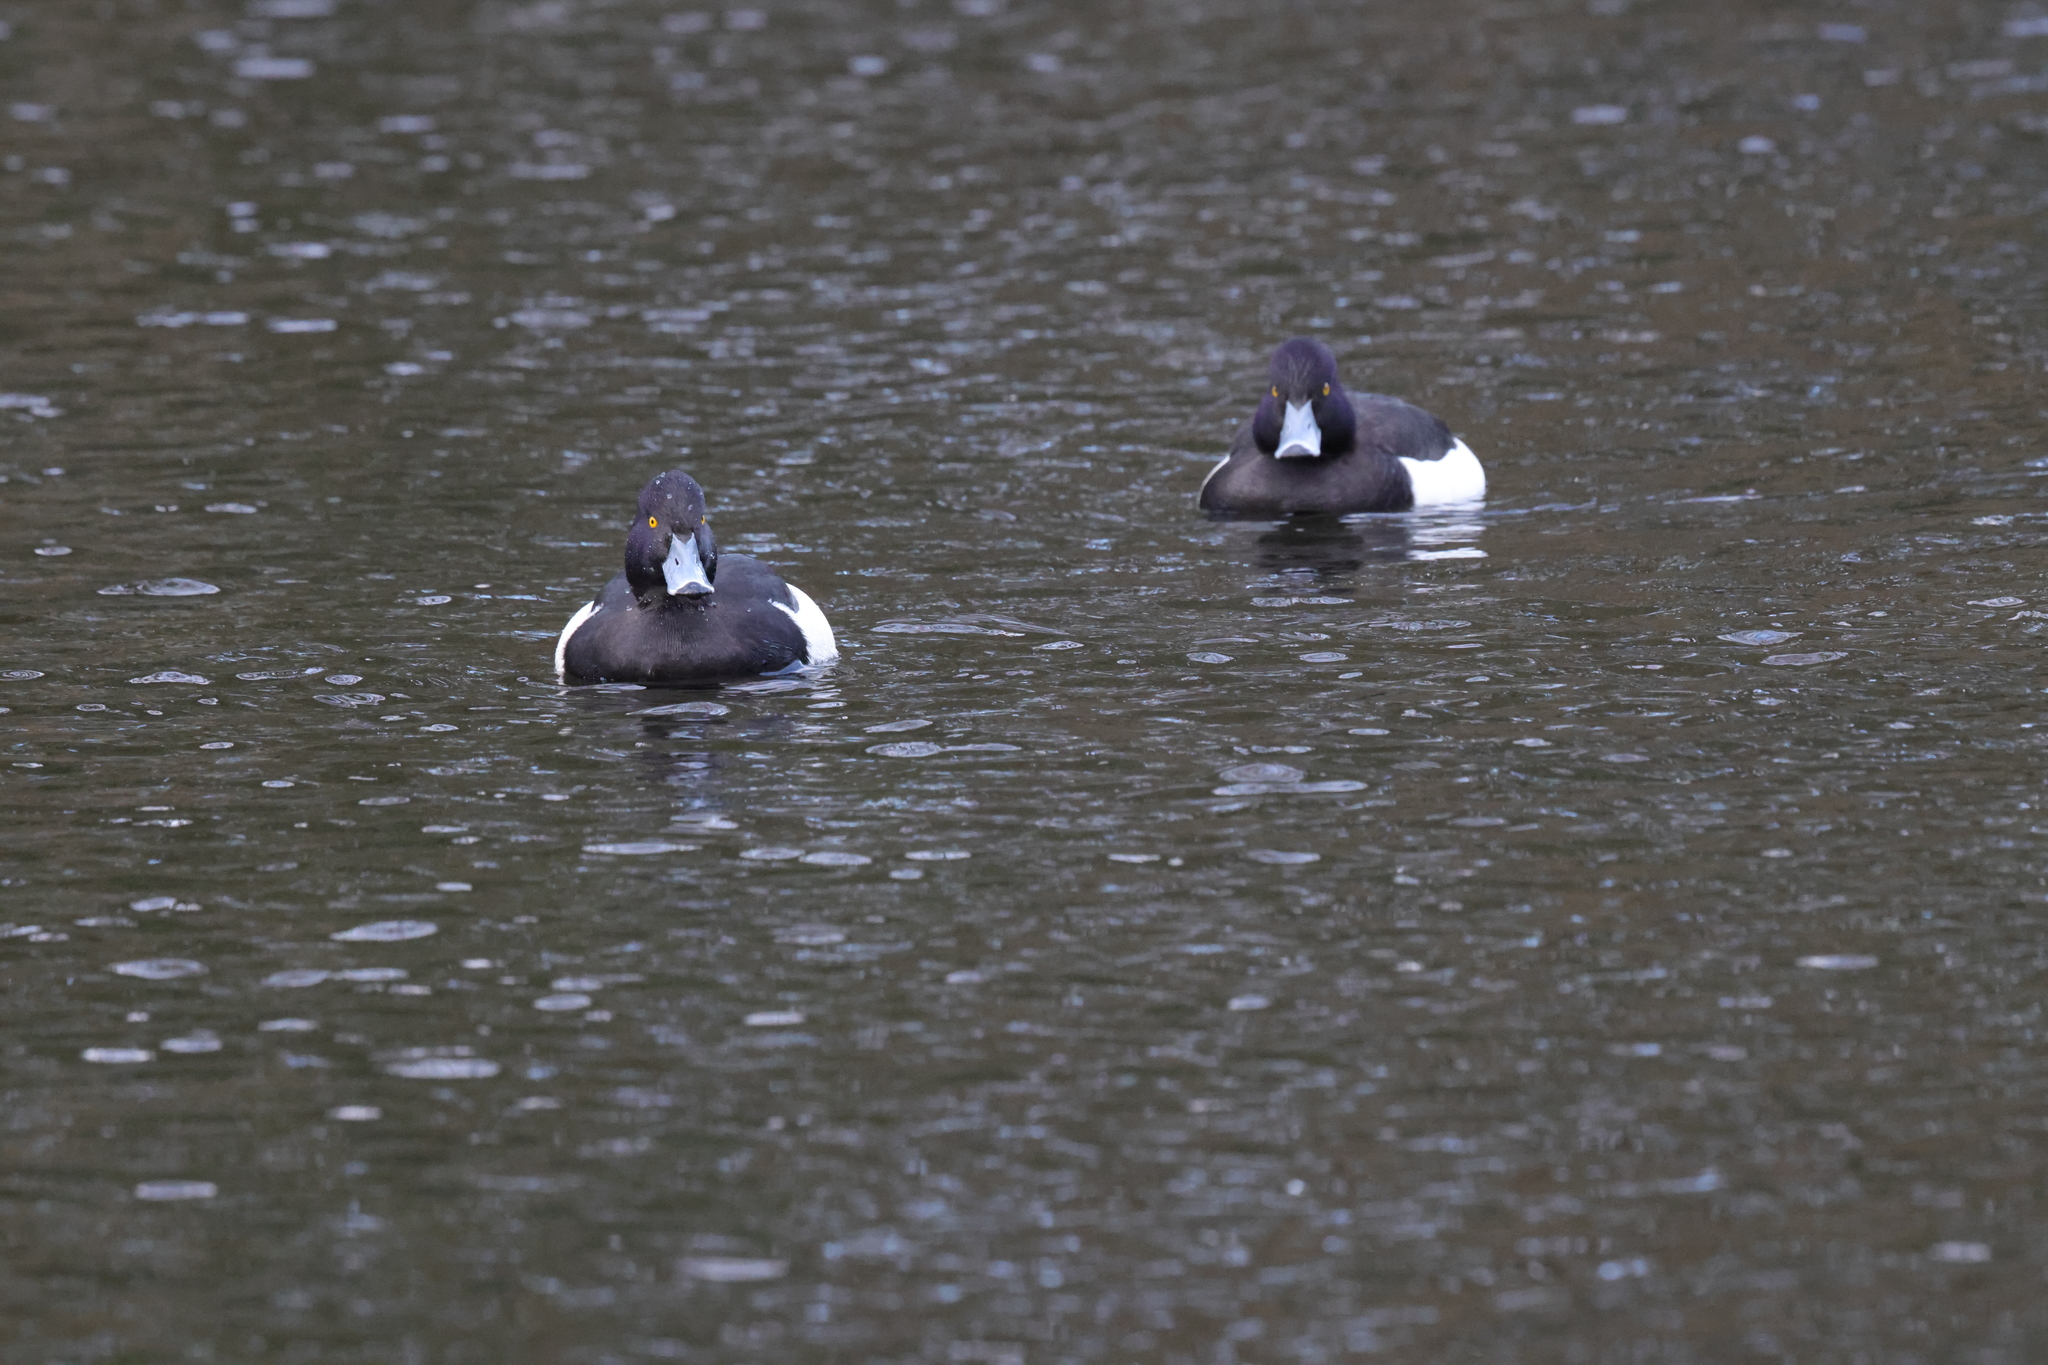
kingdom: Animalia
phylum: Chordata
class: Aves
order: Anseriformes
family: Anatidae
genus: Aythya
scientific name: Aythya fuligula
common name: Tufted duck
